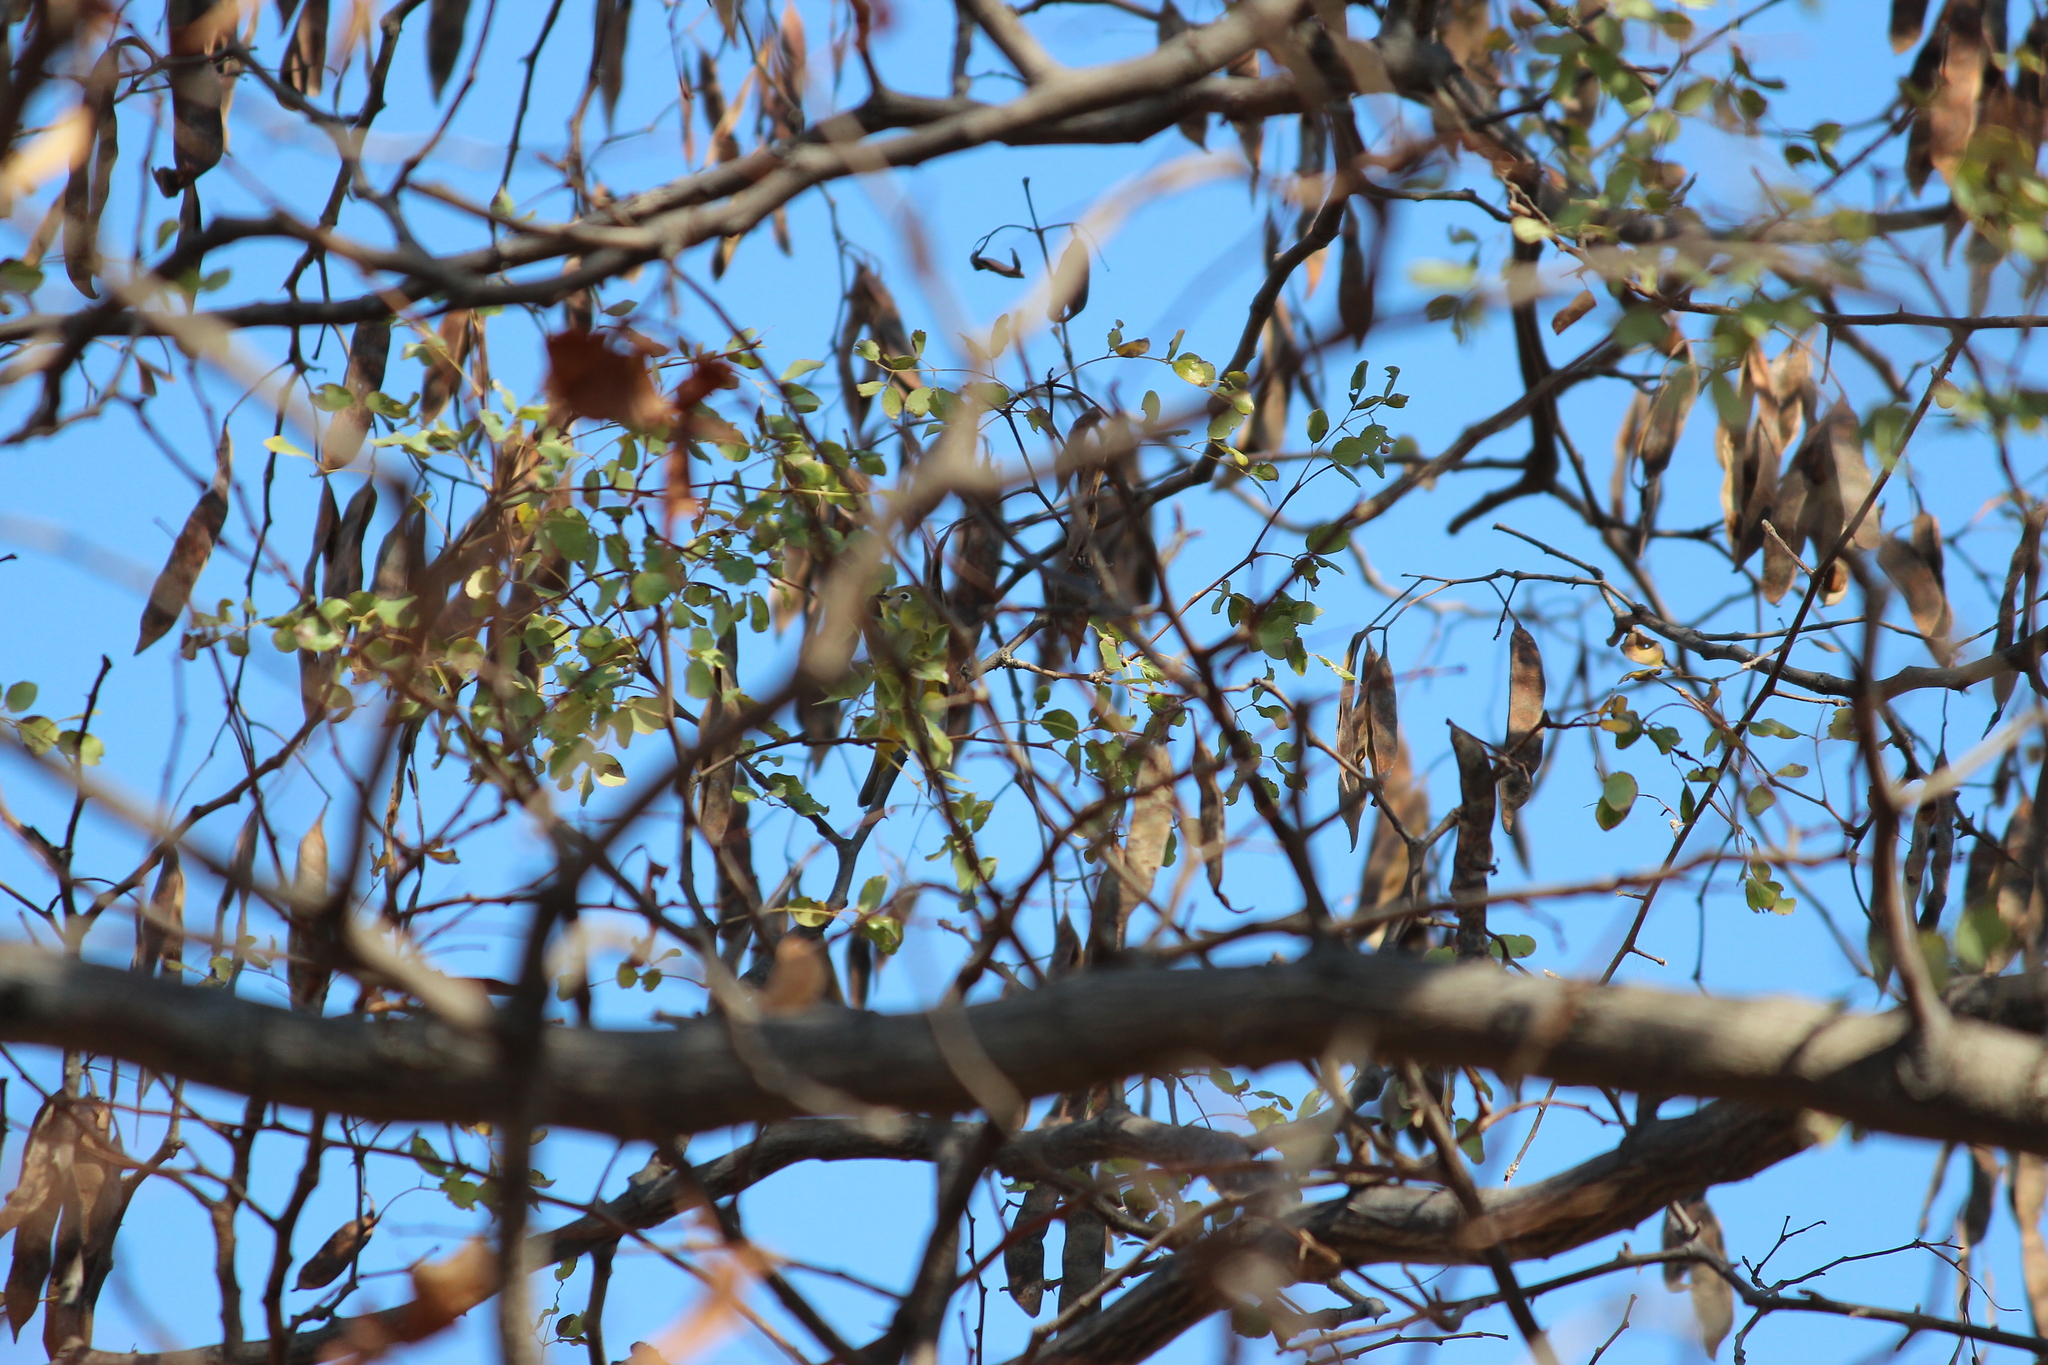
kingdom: Animalia
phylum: Chordata
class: Aves
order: Passeriformes
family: Zosteropidae
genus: Zosterops
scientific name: Zosterops anderssoni
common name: Southern yellow white-eye
